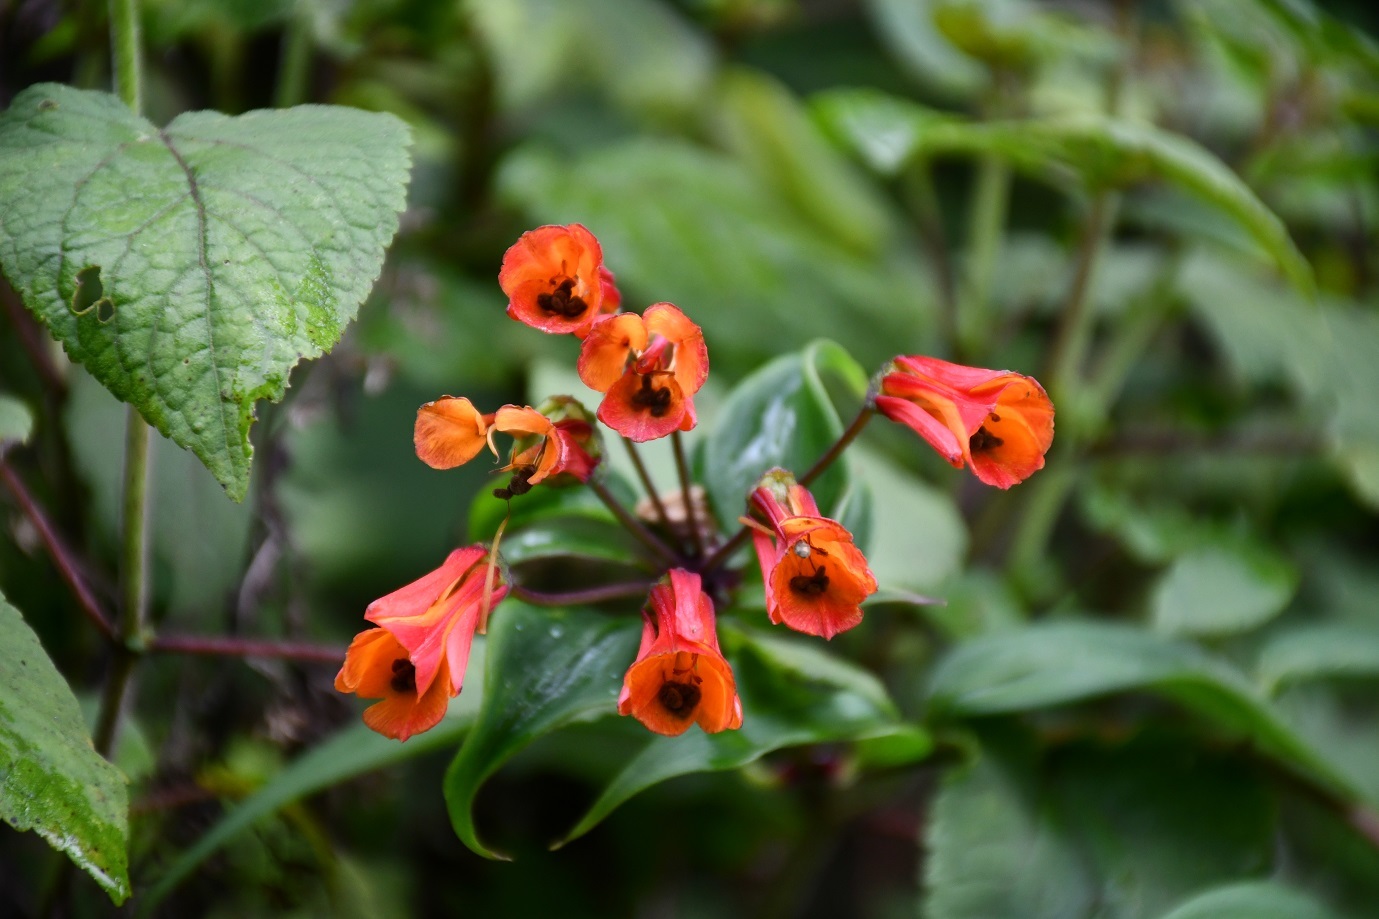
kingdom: Plantae
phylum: Tracheophyta
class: Liliopsida
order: Liliales
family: Alstroemeriaceae
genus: Bomarea
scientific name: Bomarea acutifolia
